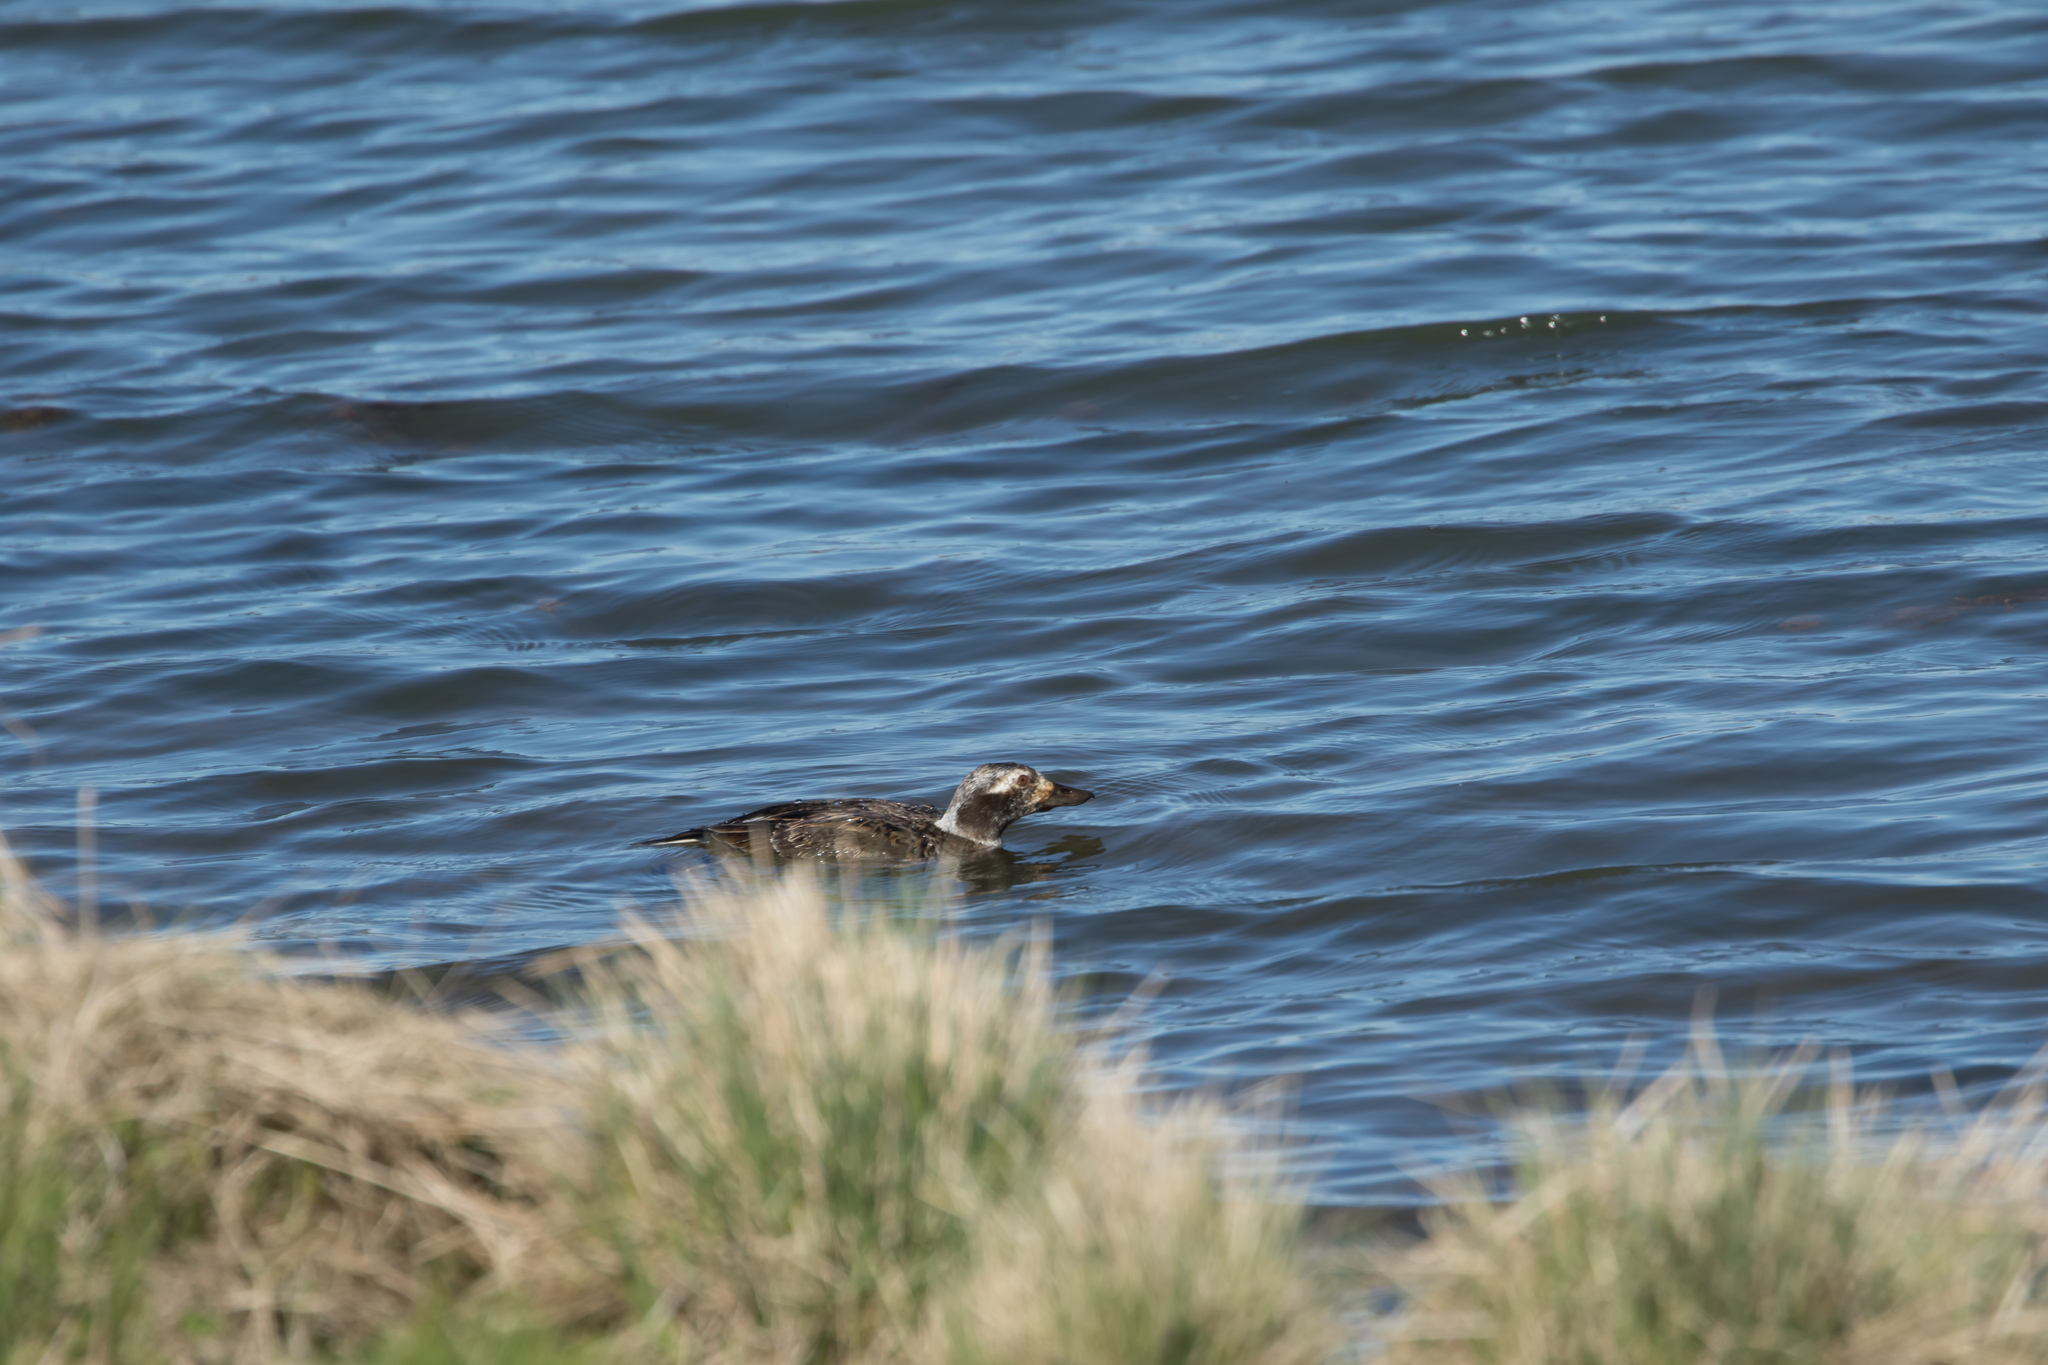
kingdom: Animalia
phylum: Chordata
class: Aves
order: Anseriformes
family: Anatidae
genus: Clangula
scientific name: Clangula hyemalis
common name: Long-tailed duck
